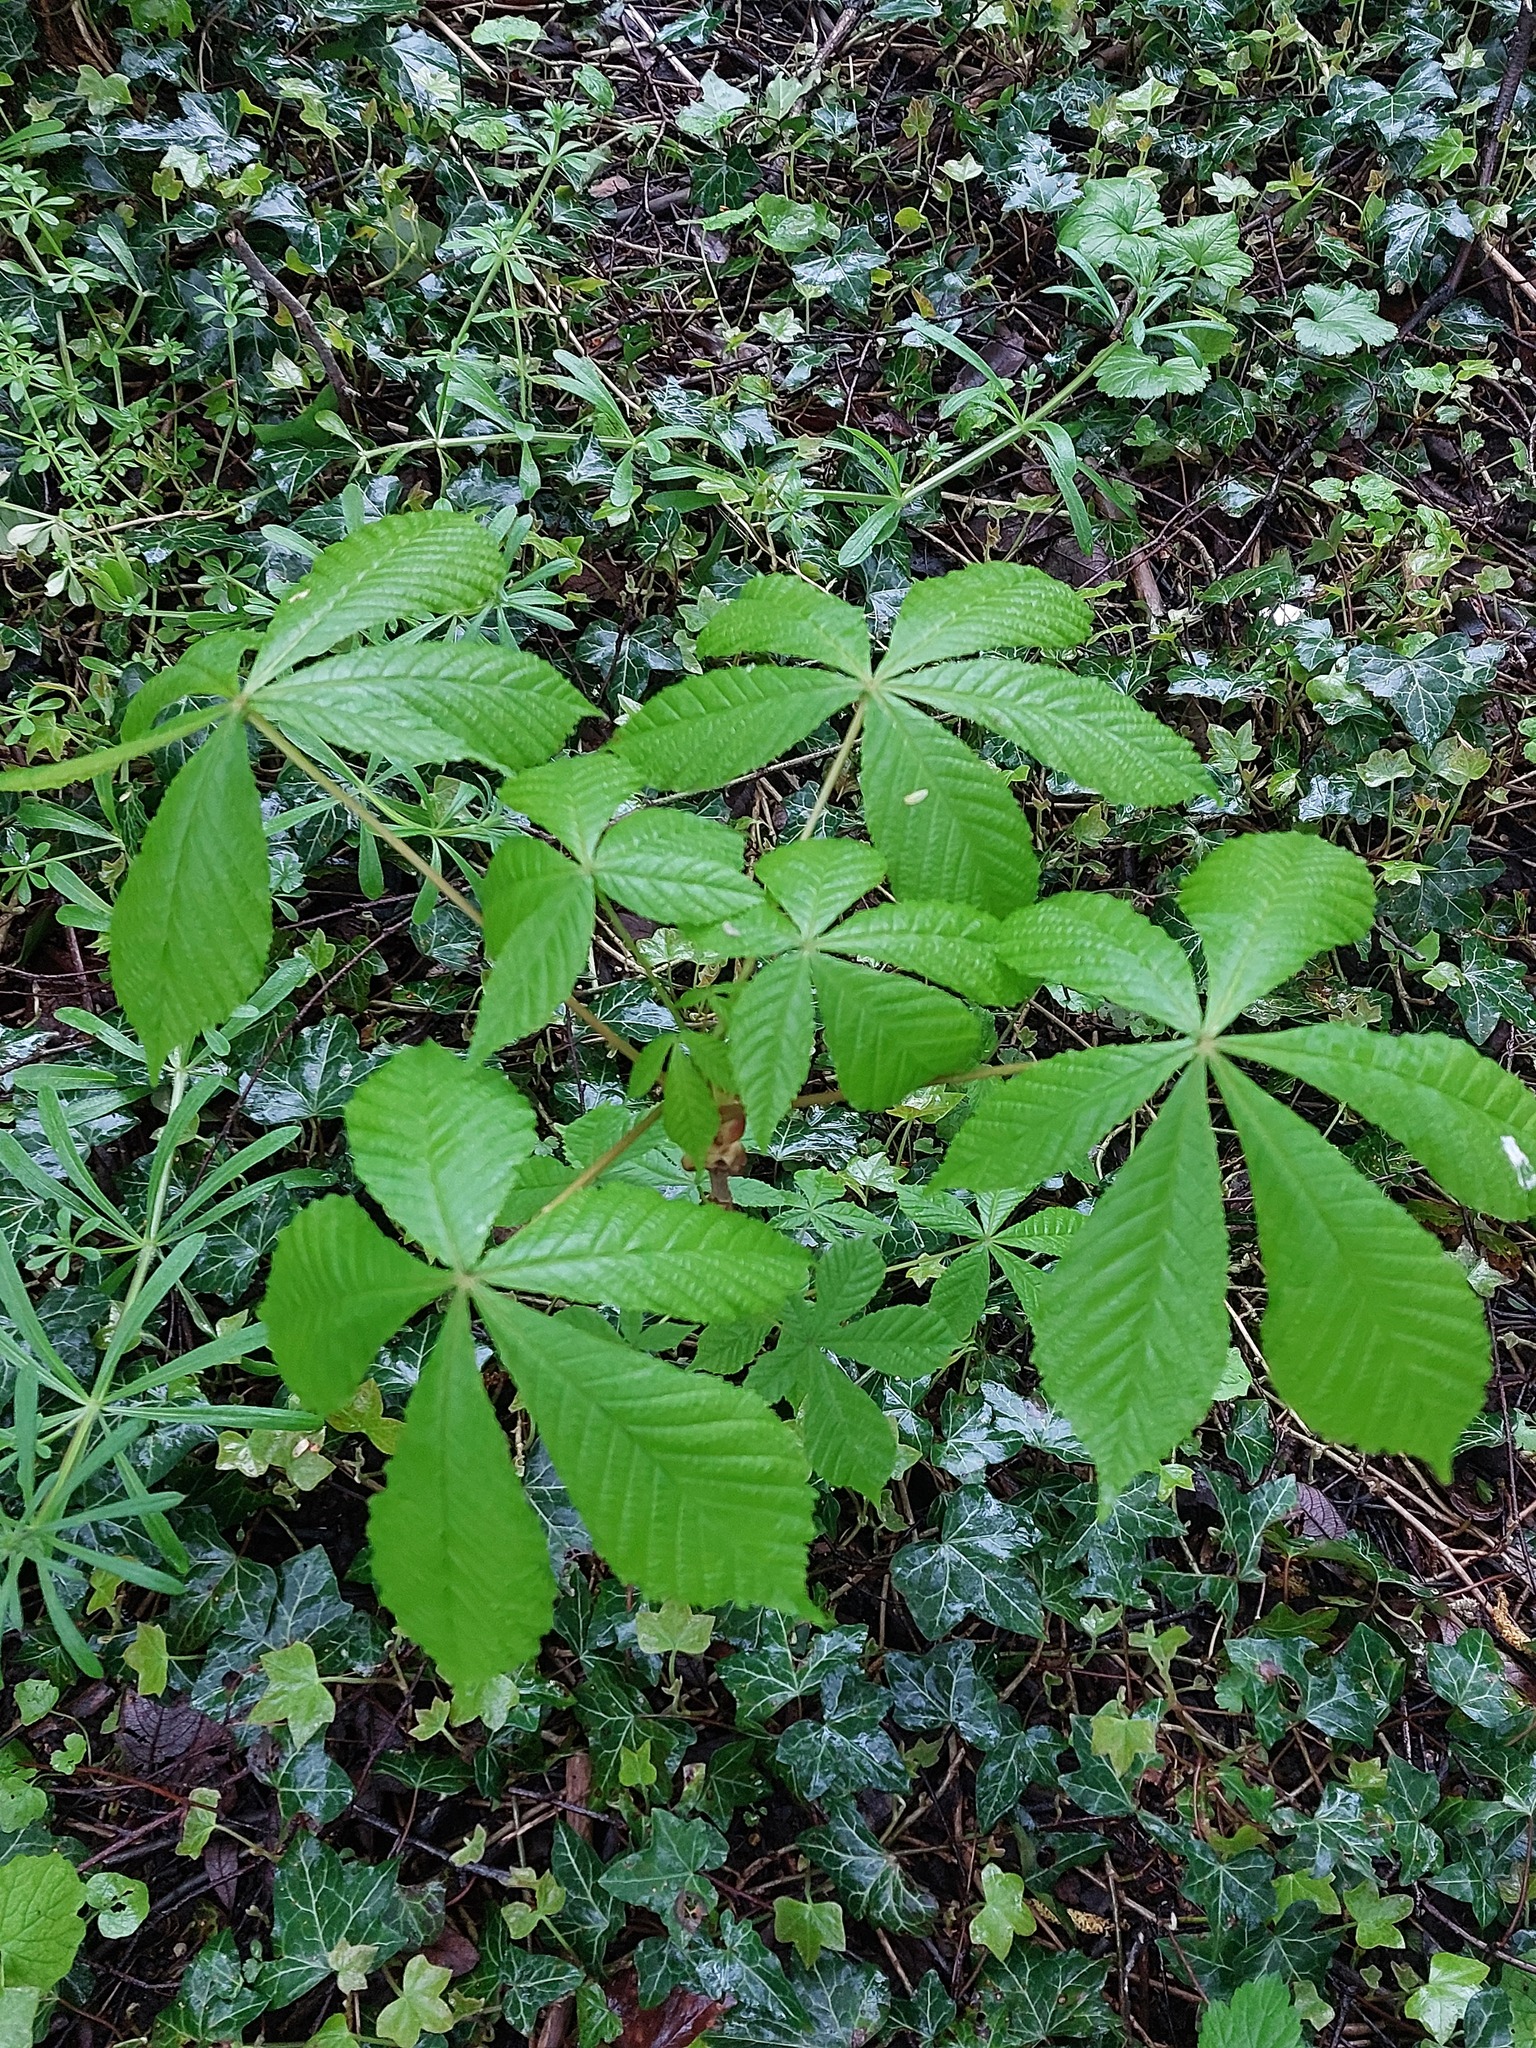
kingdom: Plantae
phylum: Tracheophyta
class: Magnoliopsida
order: Sapindales
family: Sapindaceae
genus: Aesculus
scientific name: Aesculus hippocastanum
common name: Horse-chestnut
